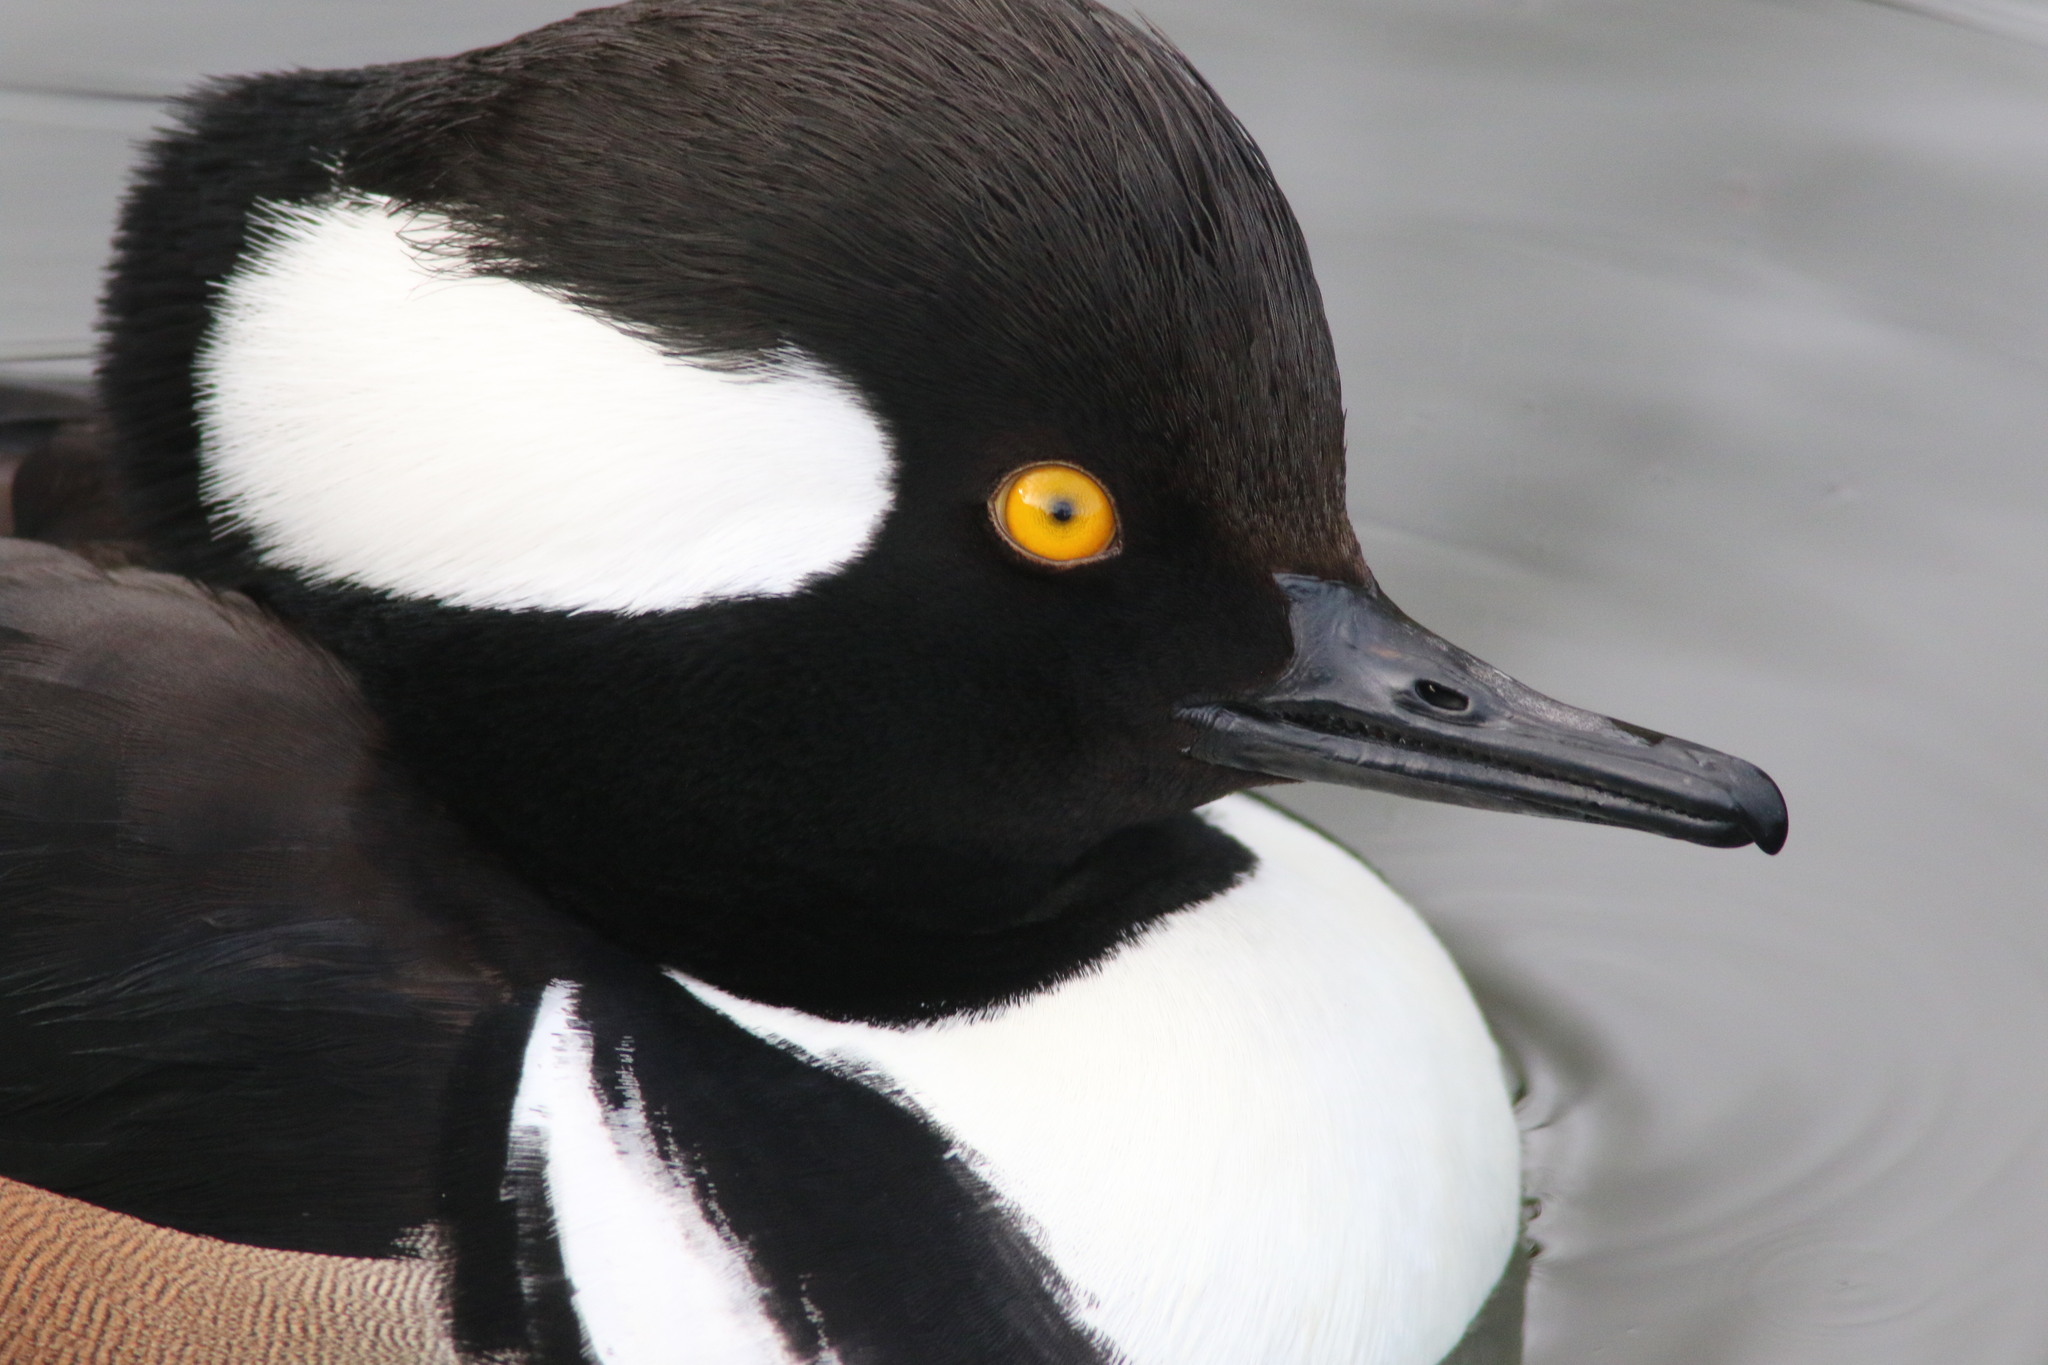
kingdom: Animalia
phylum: Chordata
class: Aves
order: Anseriformes
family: Anatidae
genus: Lophodytes
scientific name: Lophodytes cucullatus
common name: Hooded merganser
